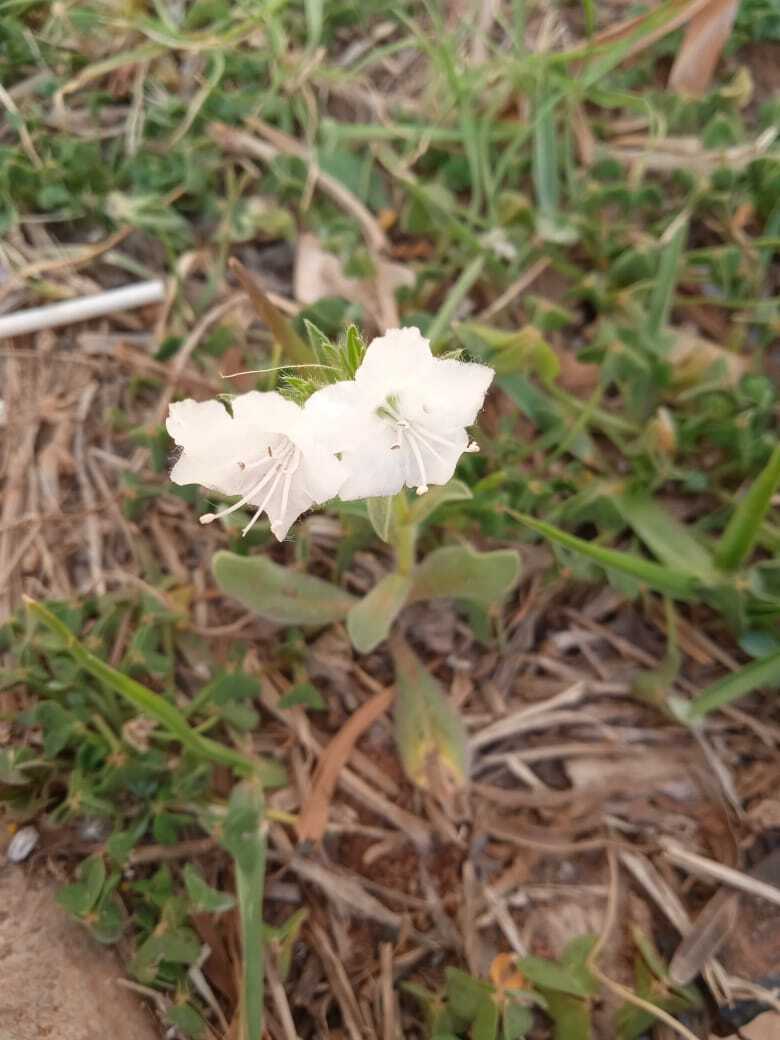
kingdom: Plantae
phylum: Tracheophyta
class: Magnoliopsida
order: Boraginales
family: Boraginaceae
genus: Echium
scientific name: Echium plantagineum
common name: Purple viper's-bugloss
